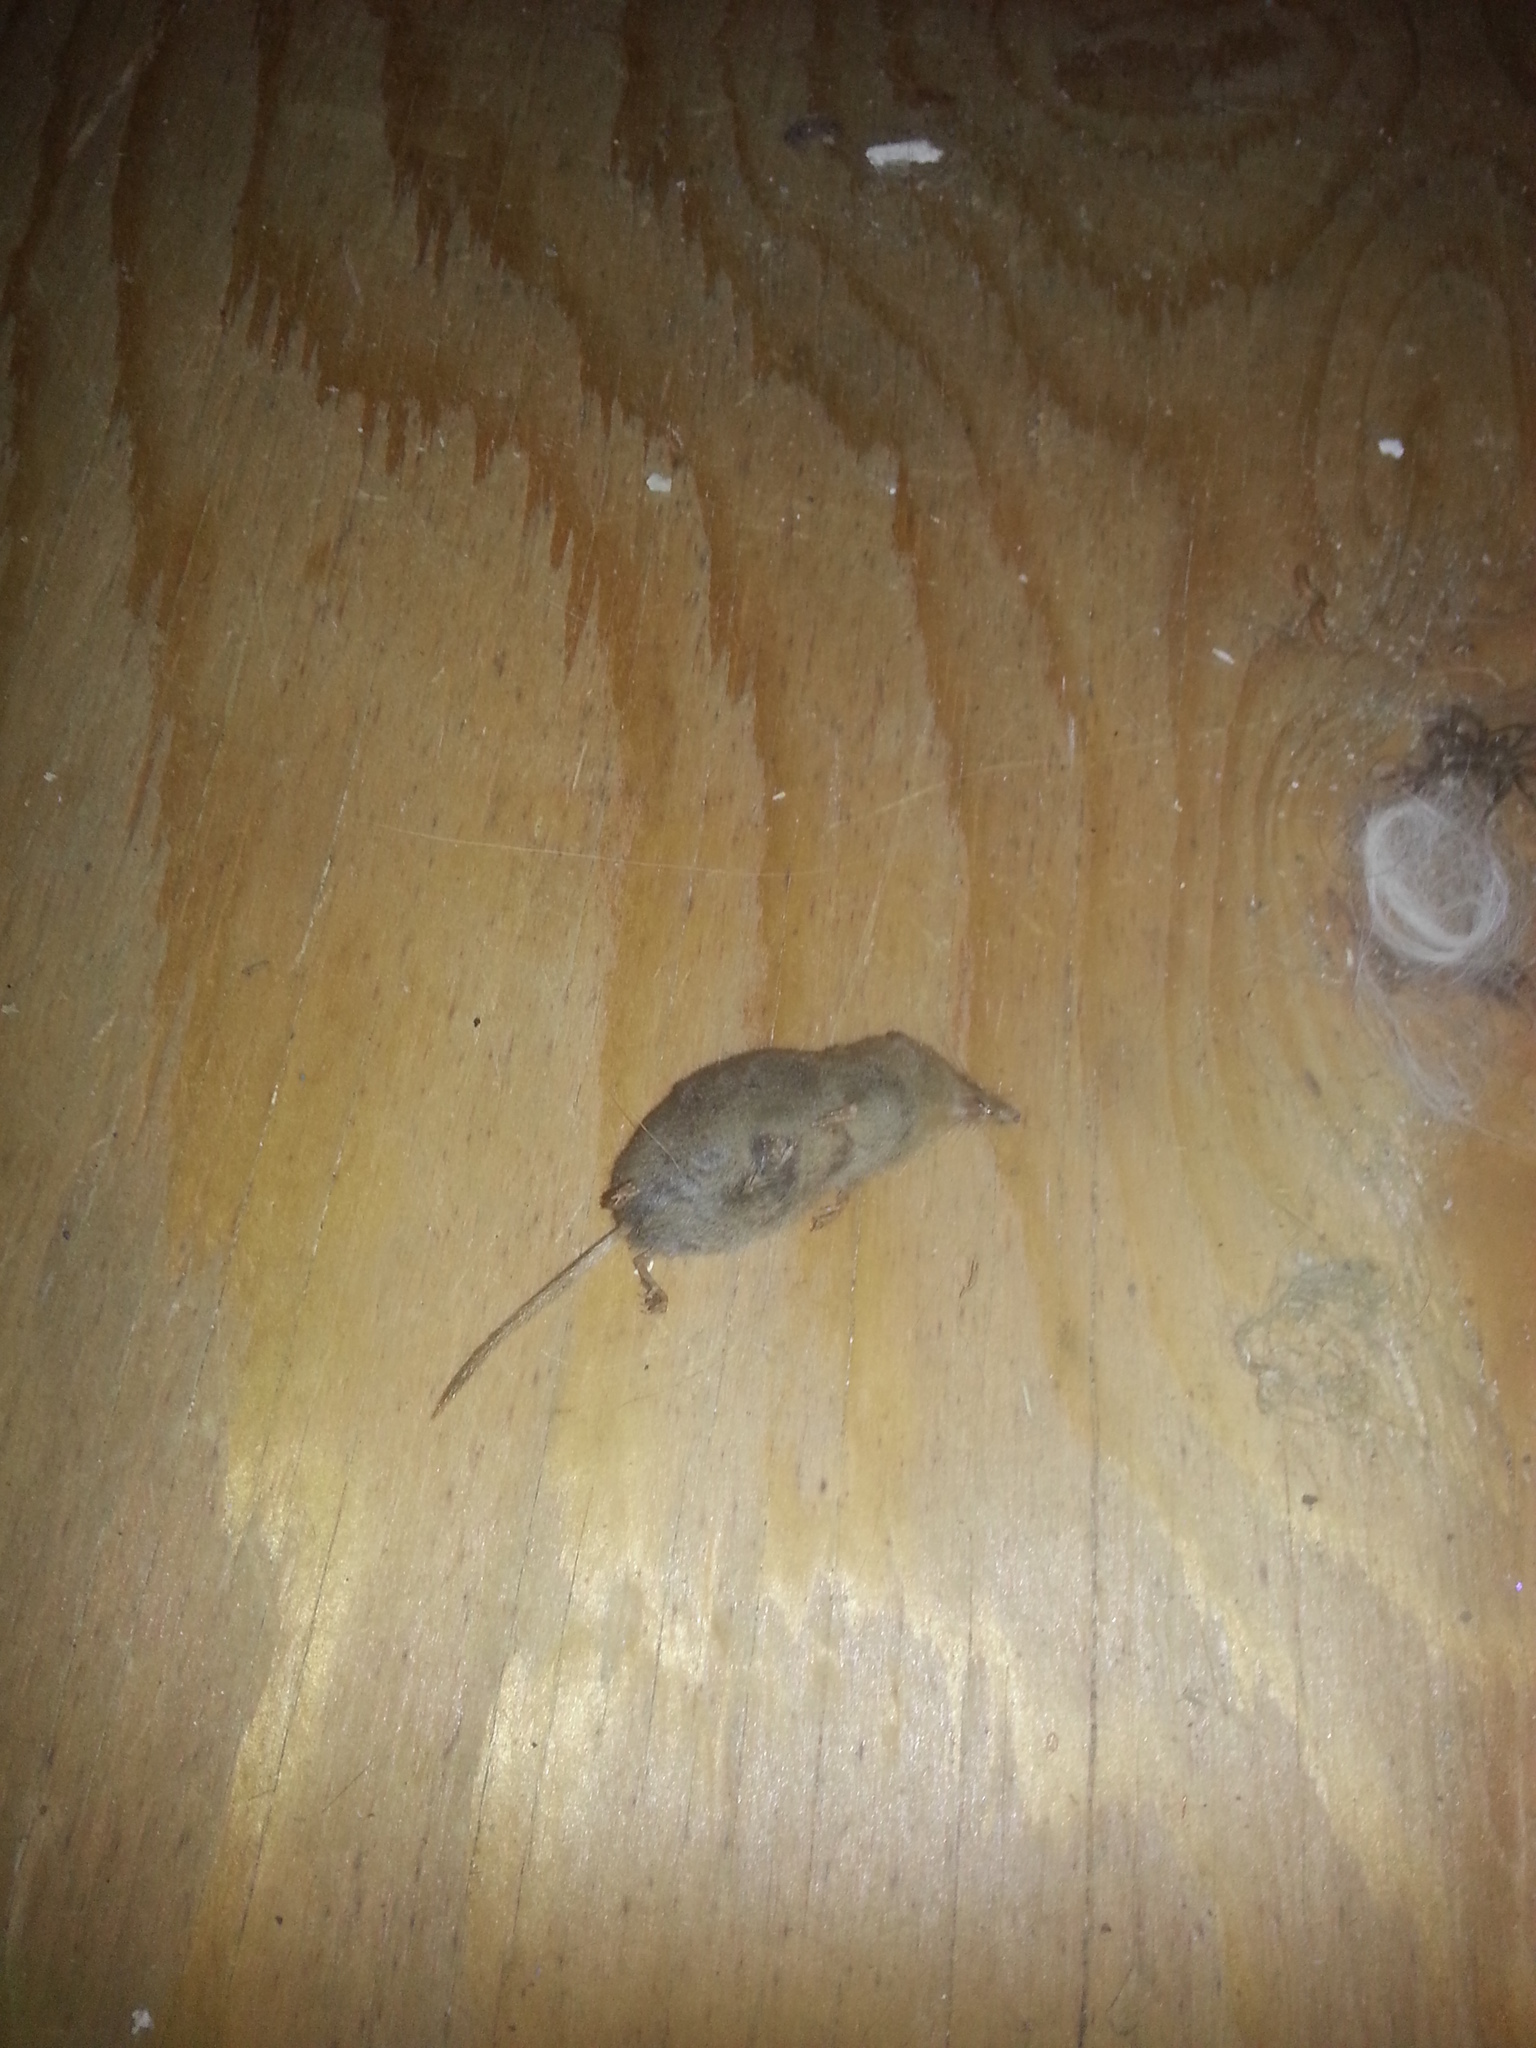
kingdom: Animalia
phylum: Chordata
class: Mammalia
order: Soricomorpha
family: Soricidae
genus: Sorex
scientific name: Sorex cinereus
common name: Cinereus shrew
